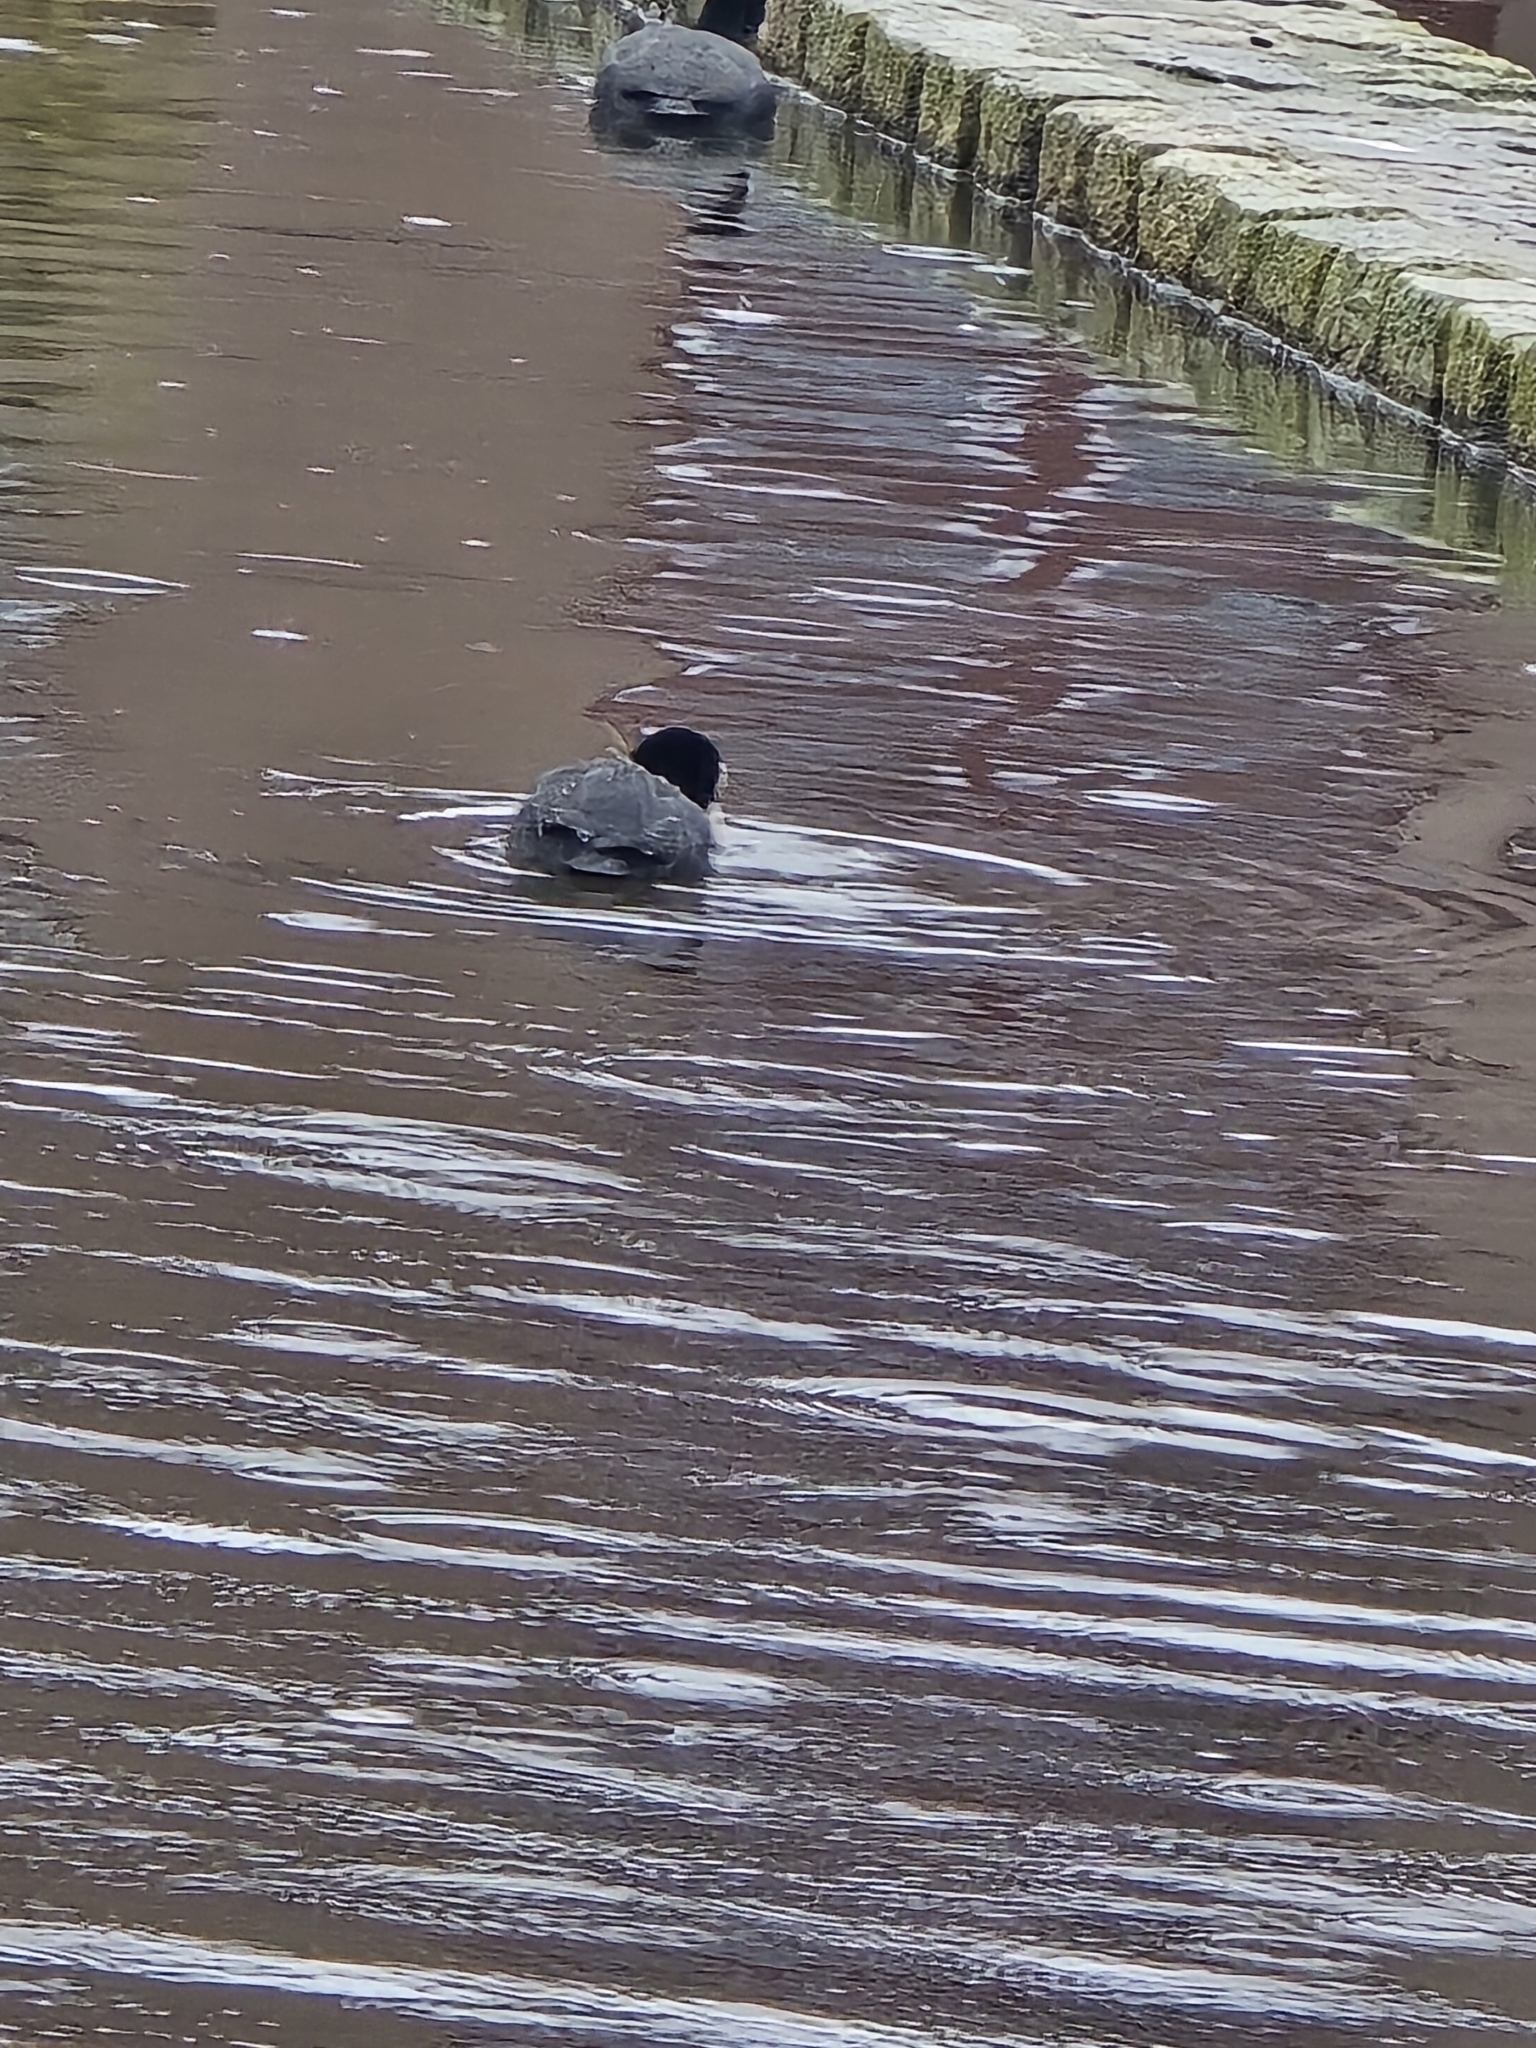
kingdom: Animalia
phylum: Chordata
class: Aves
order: Gruiformes
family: Rallidae
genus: Fulica
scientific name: Fulica atra
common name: Eurasian coot
